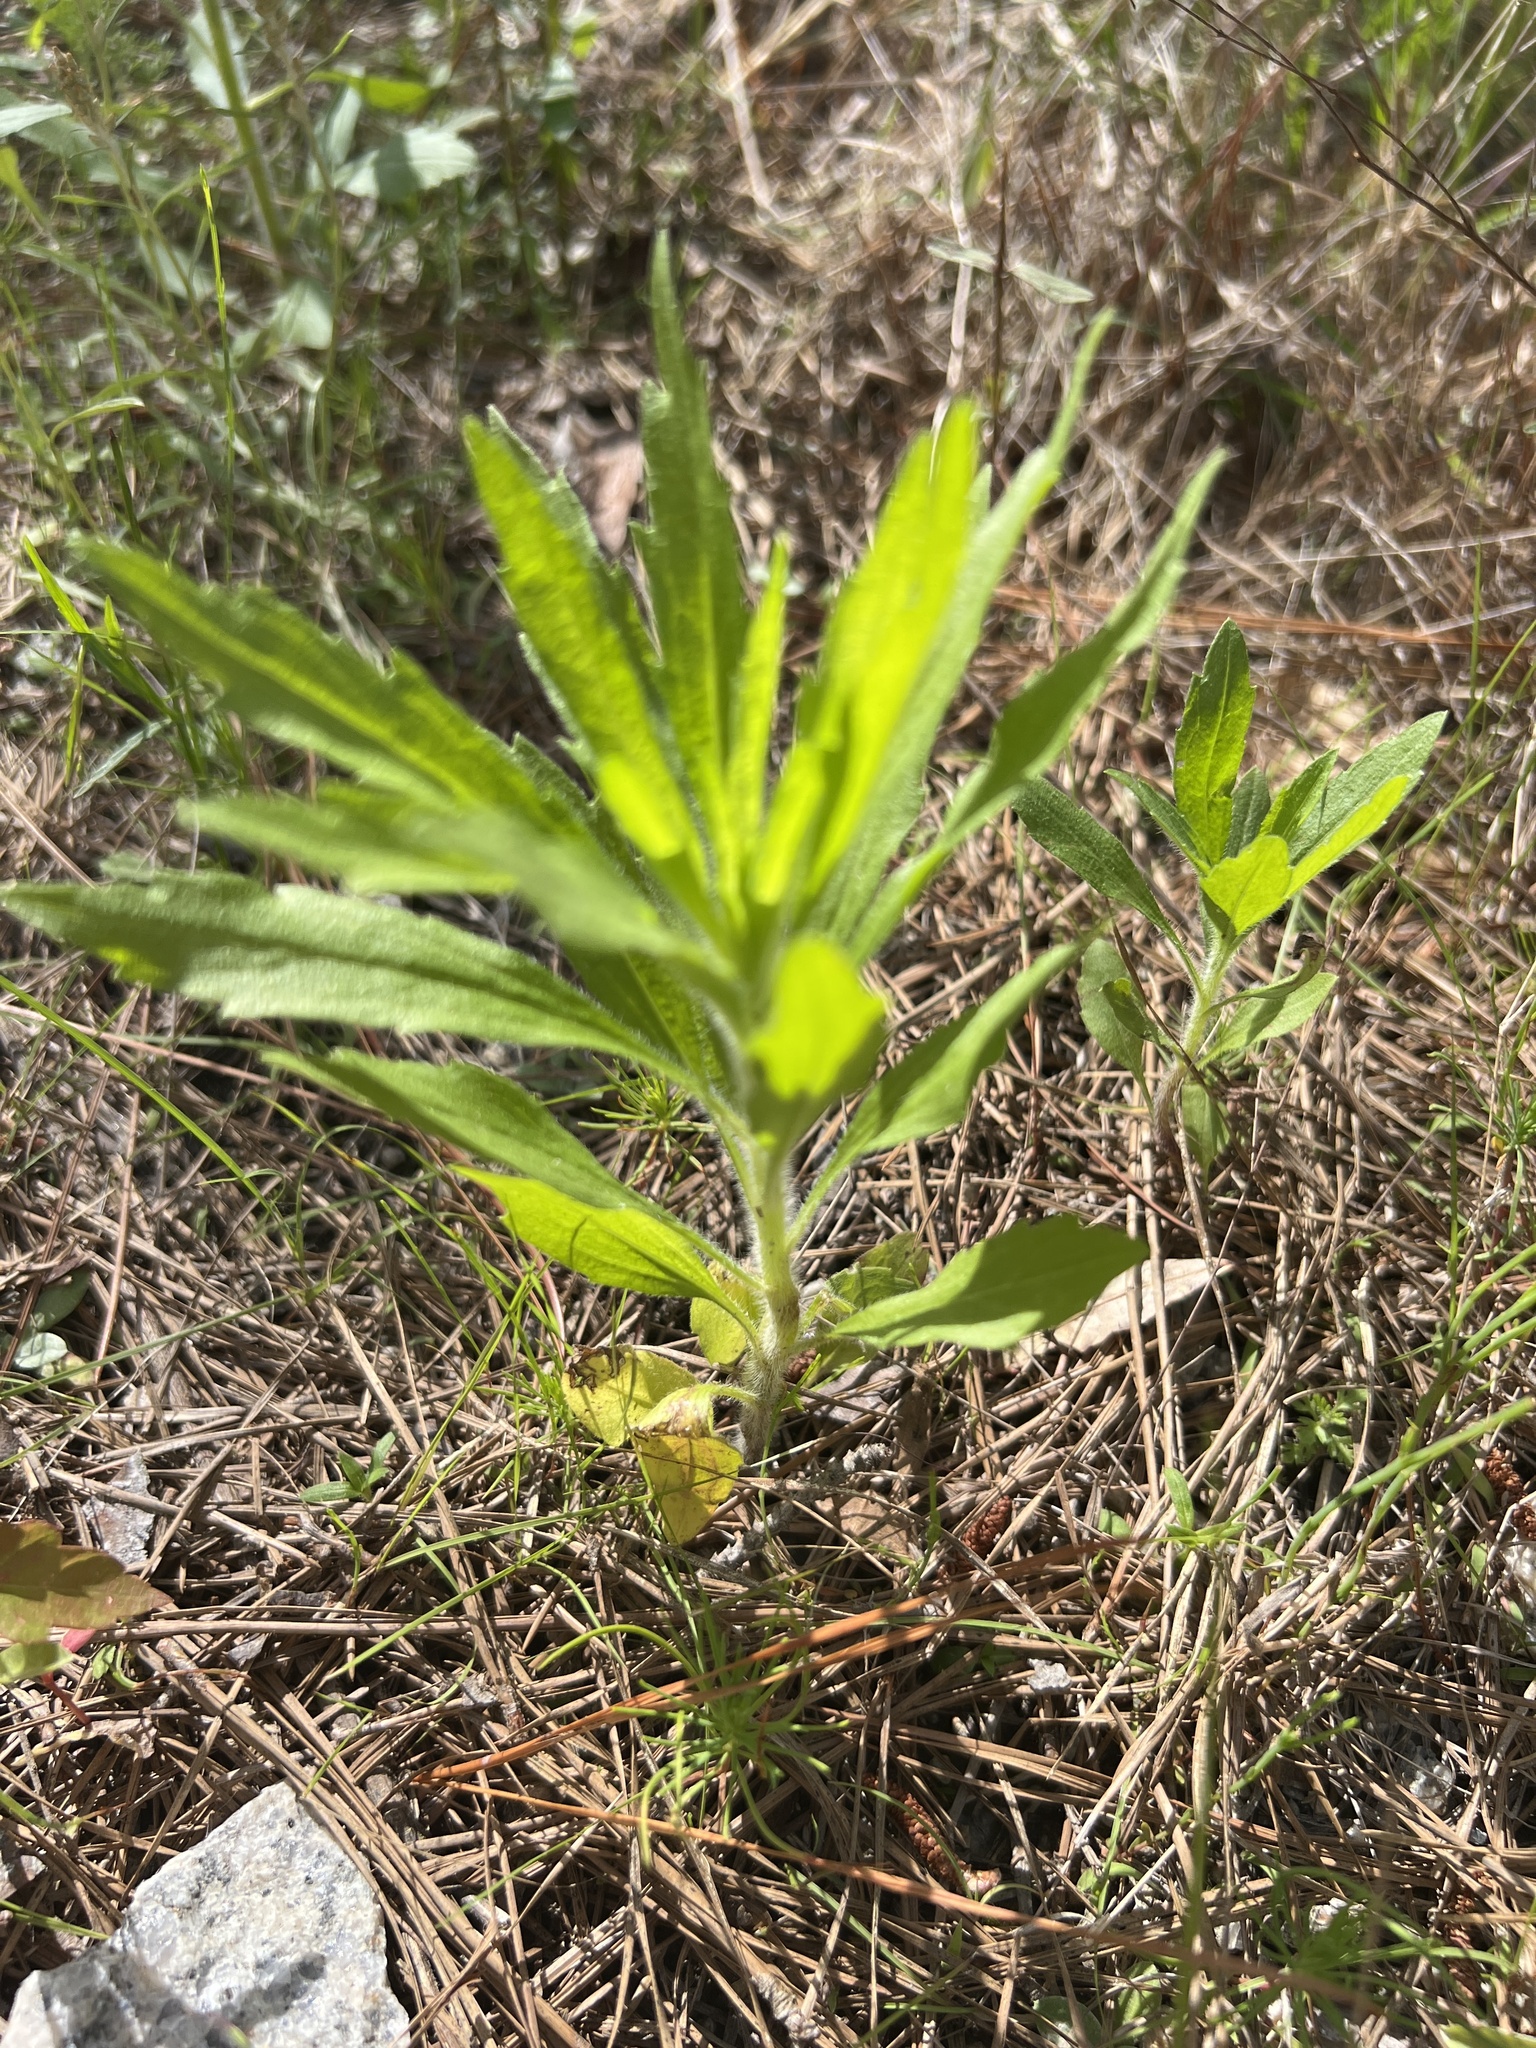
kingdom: Plantae
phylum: Tracheophyta
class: Magnoliopsida
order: Asterales
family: Asteraceae
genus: Erigeron
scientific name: Erigeron canadensis
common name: Canadian fleabane
